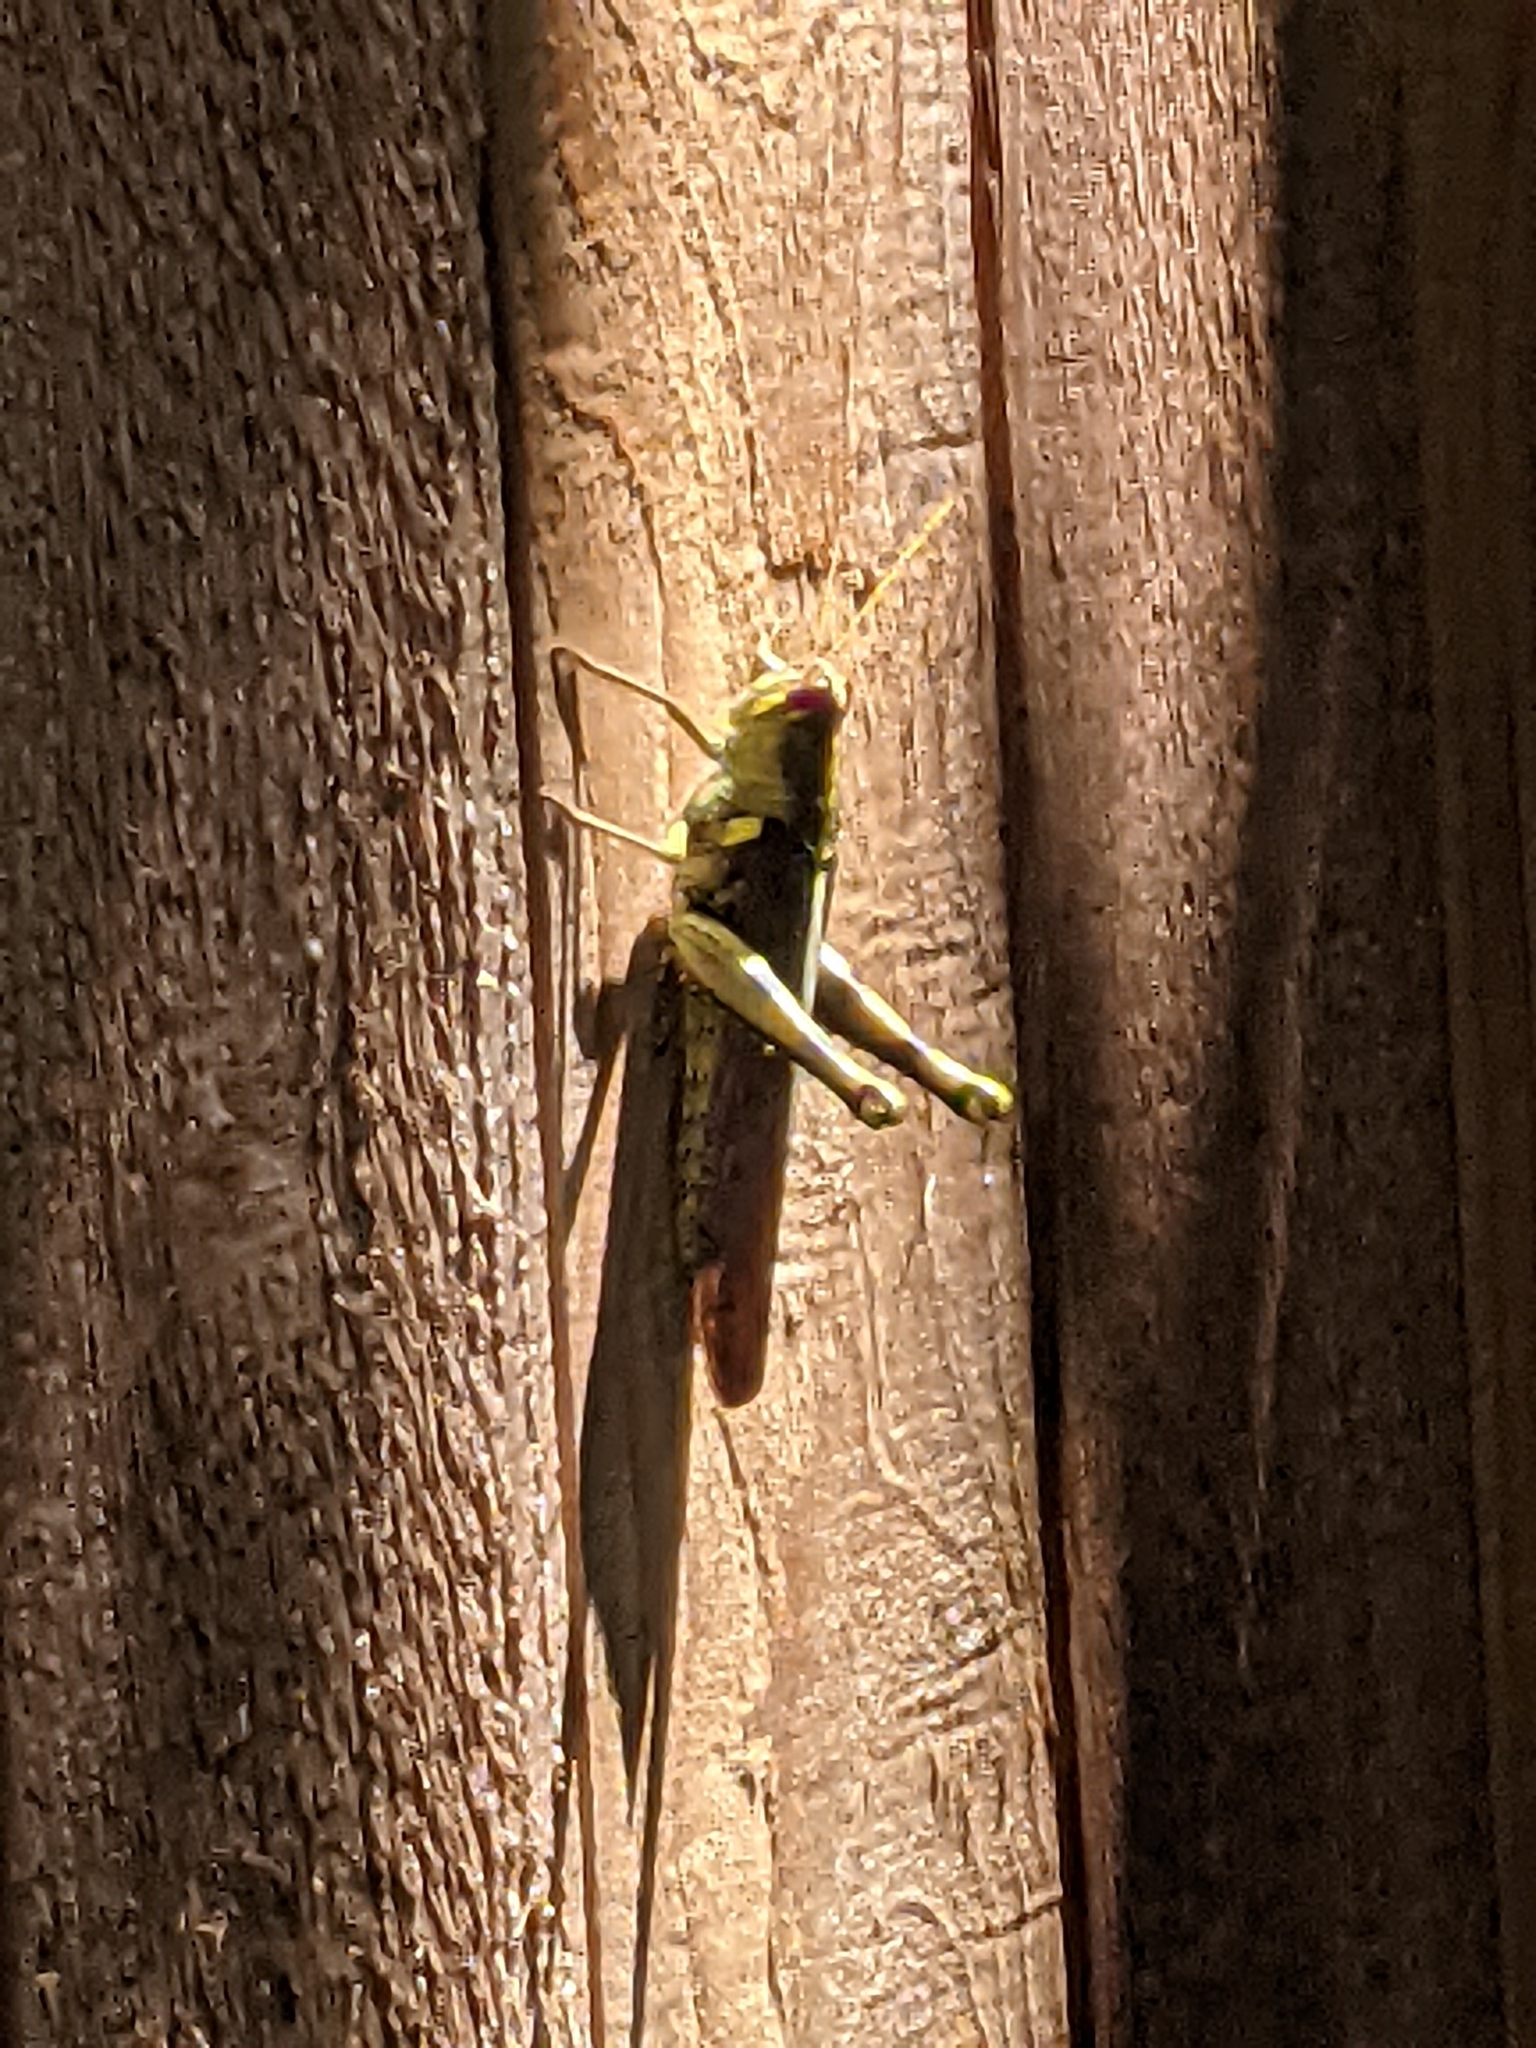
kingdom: Animalia
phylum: Arthropoda
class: Insecta
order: Orthoptera
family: Acrididae
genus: Schistocerca
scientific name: Schistocerca obscura
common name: Obscure bird grasshopper
